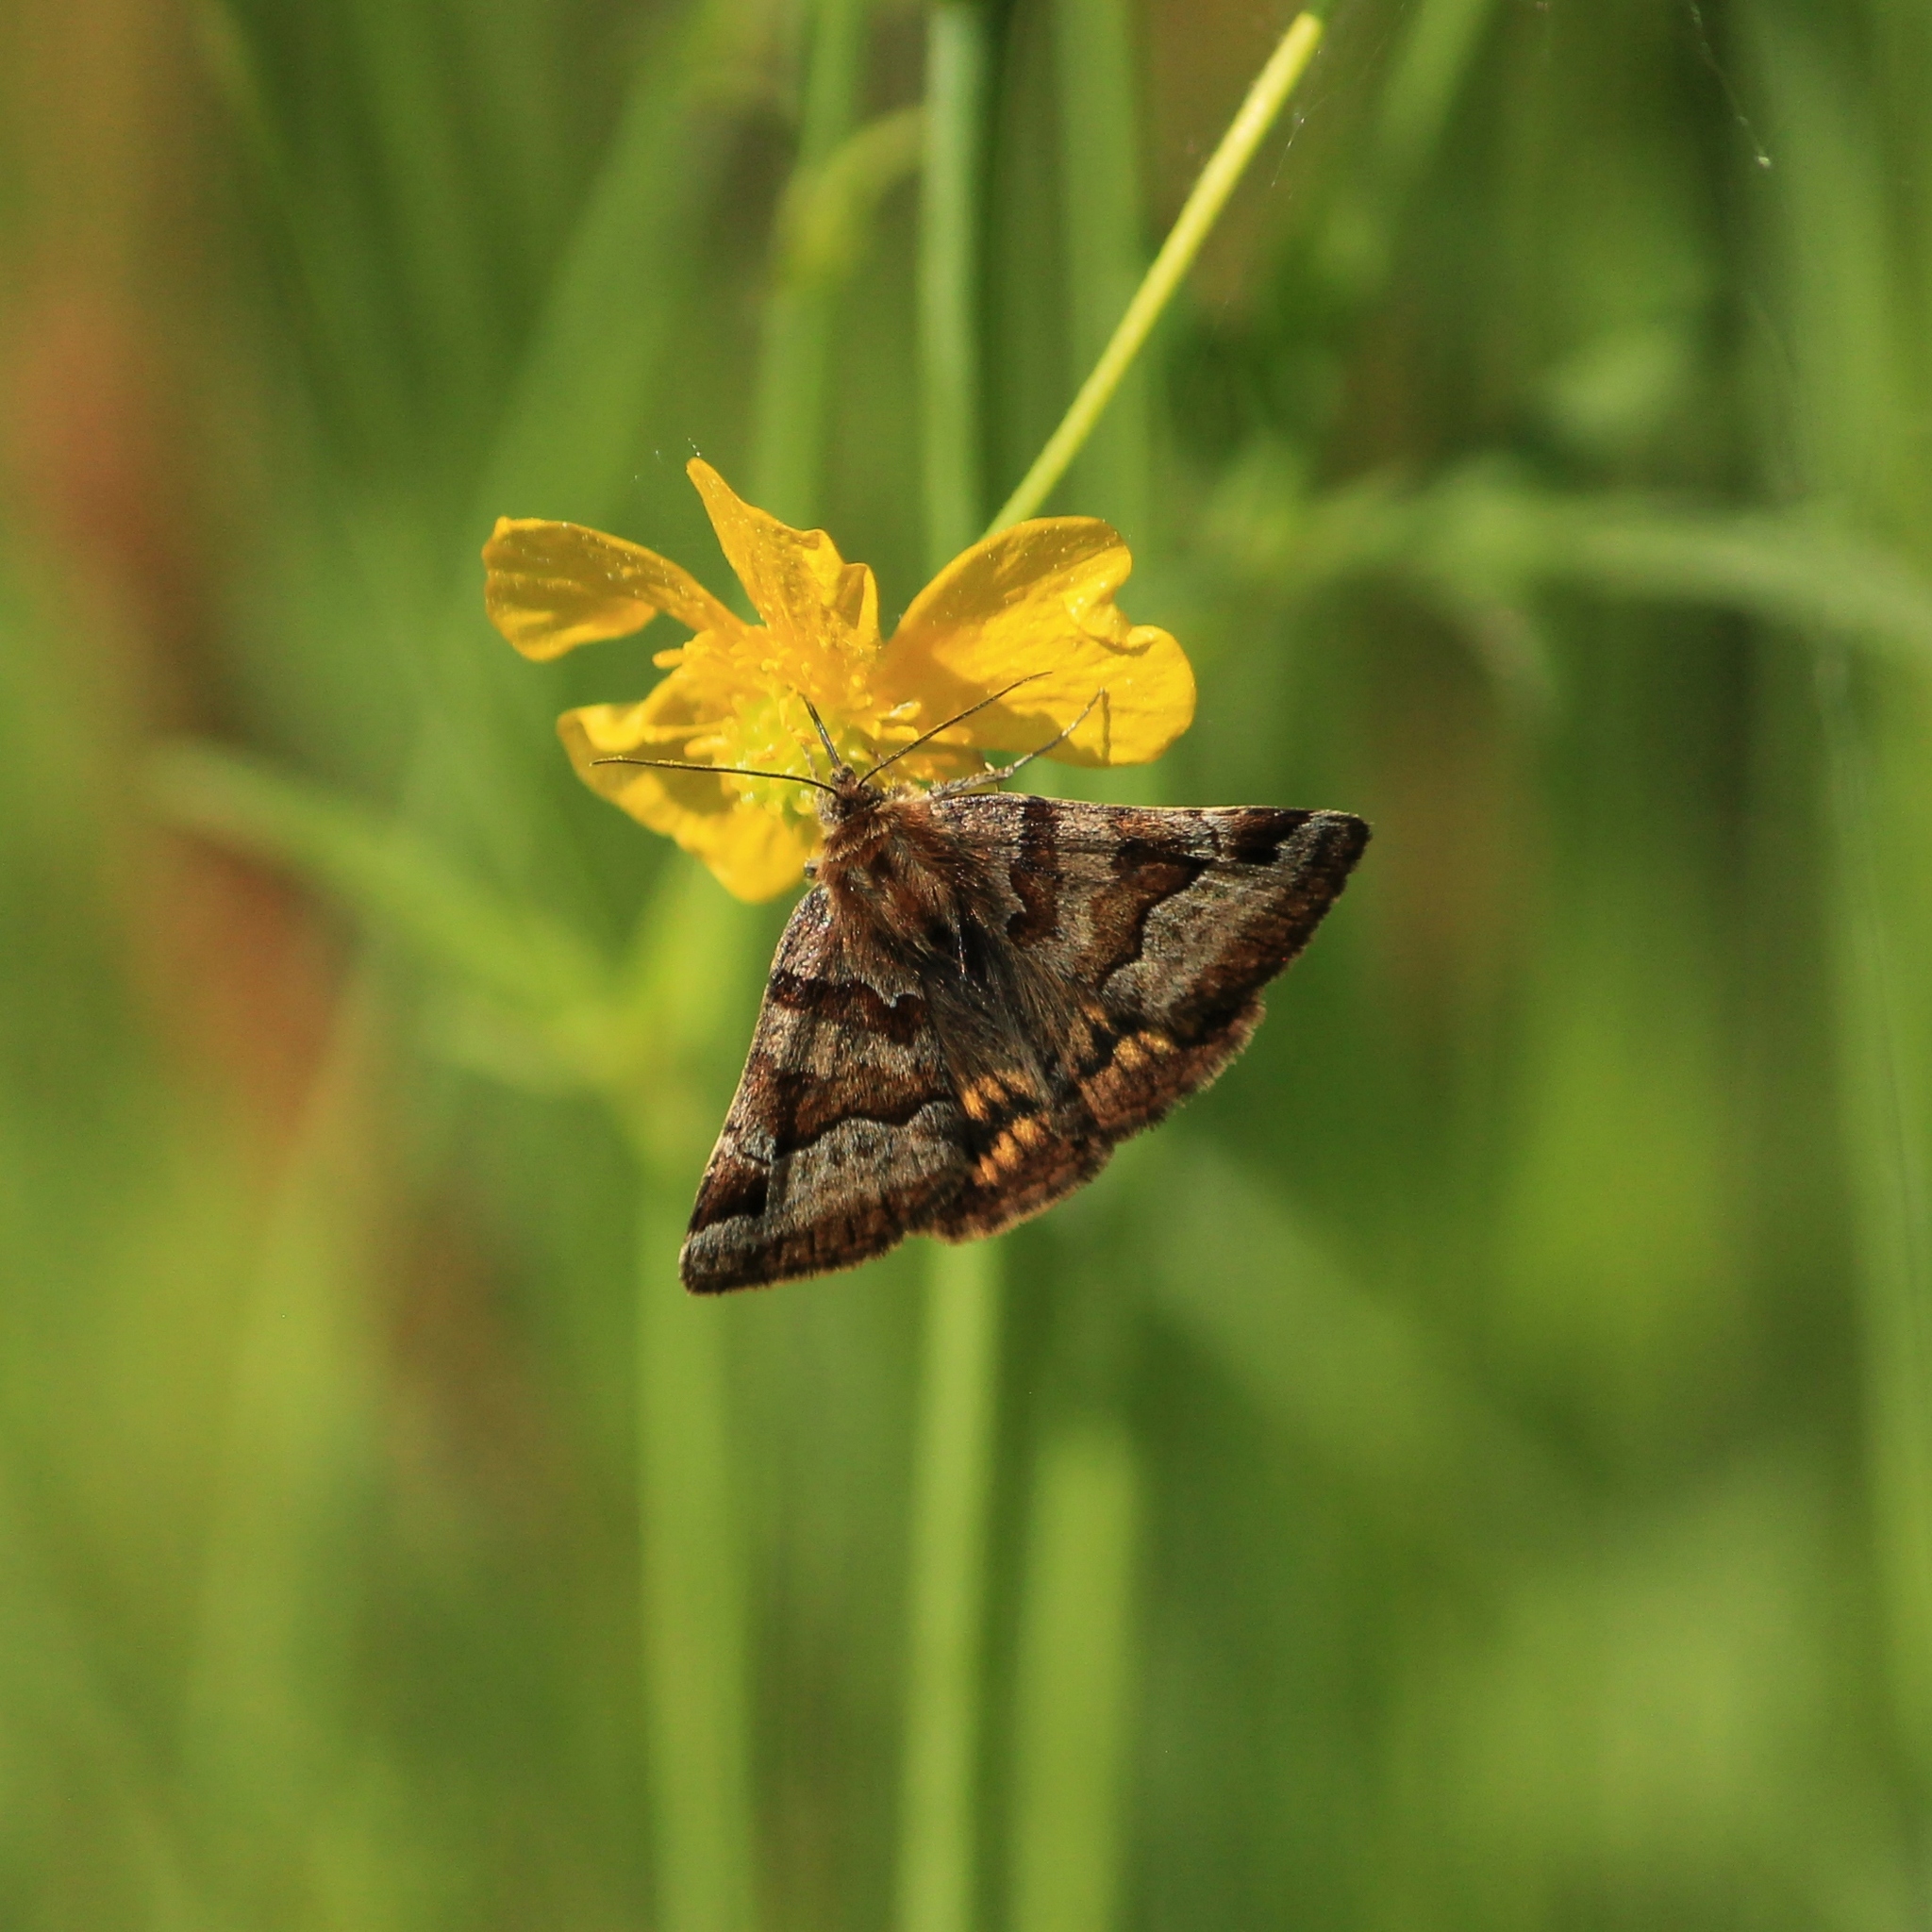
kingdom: Animalia
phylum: Arthropoda
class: Insecta
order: Lepidoptera
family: Erebidae
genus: Euclidia
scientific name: Euclidia glyphica
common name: Burnet companion
